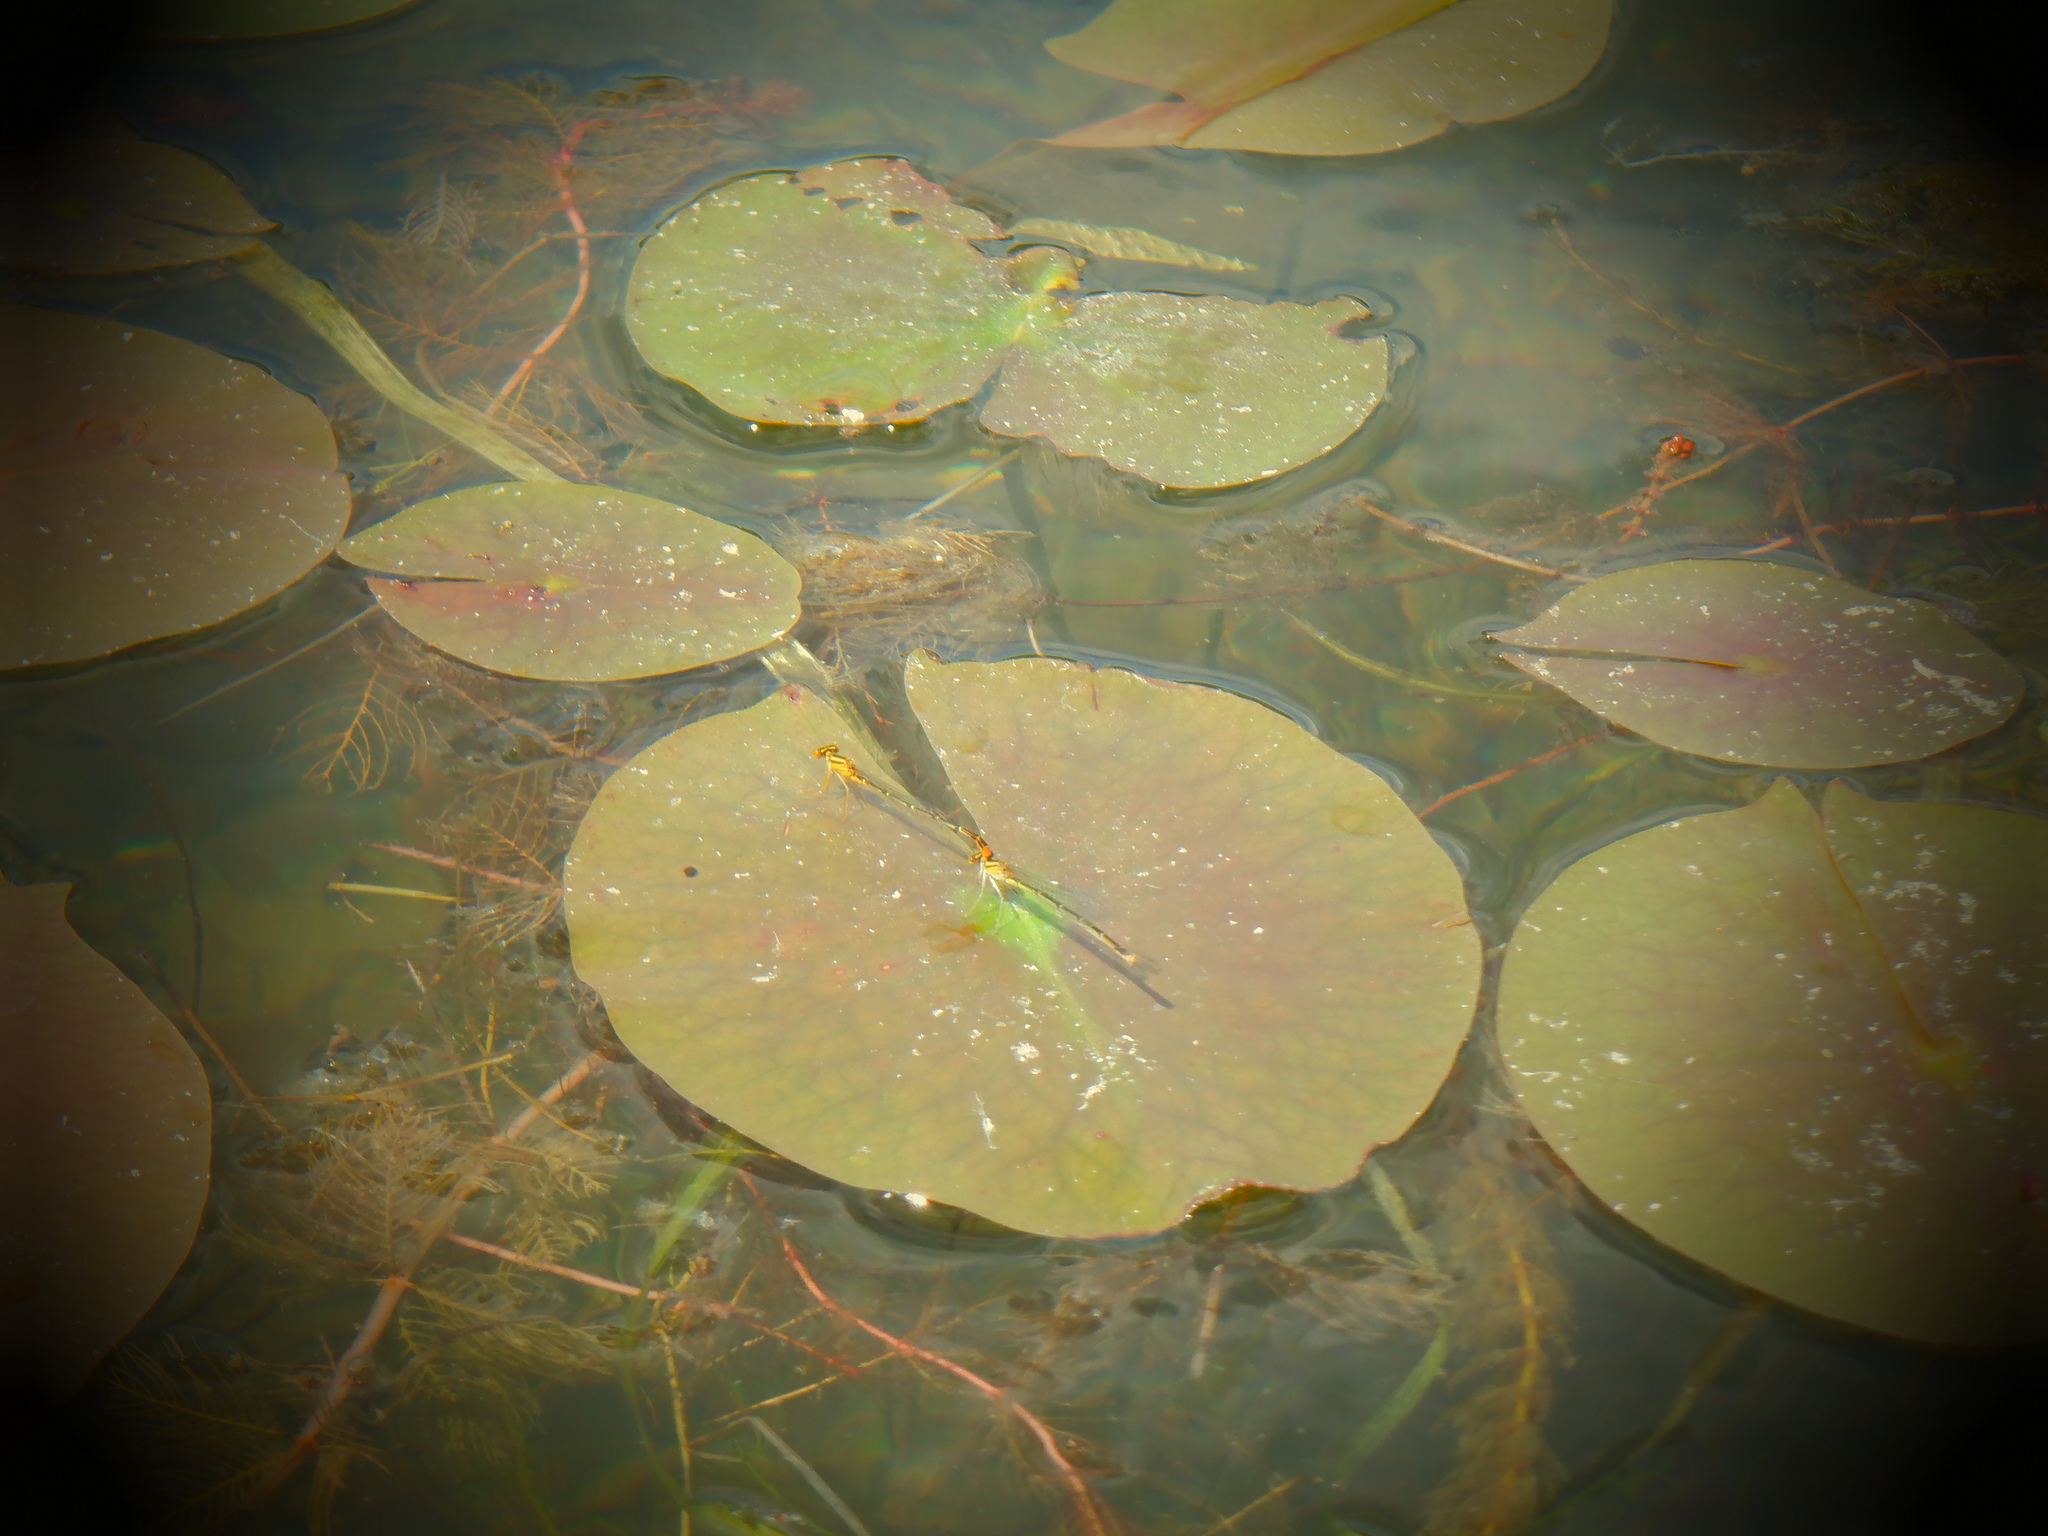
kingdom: Animalia
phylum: Arthropoda
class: Insecta
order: Odonata
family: Coenagrionidae
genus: Enallagma
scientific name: Enallagma signatum
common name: Orange bluet
